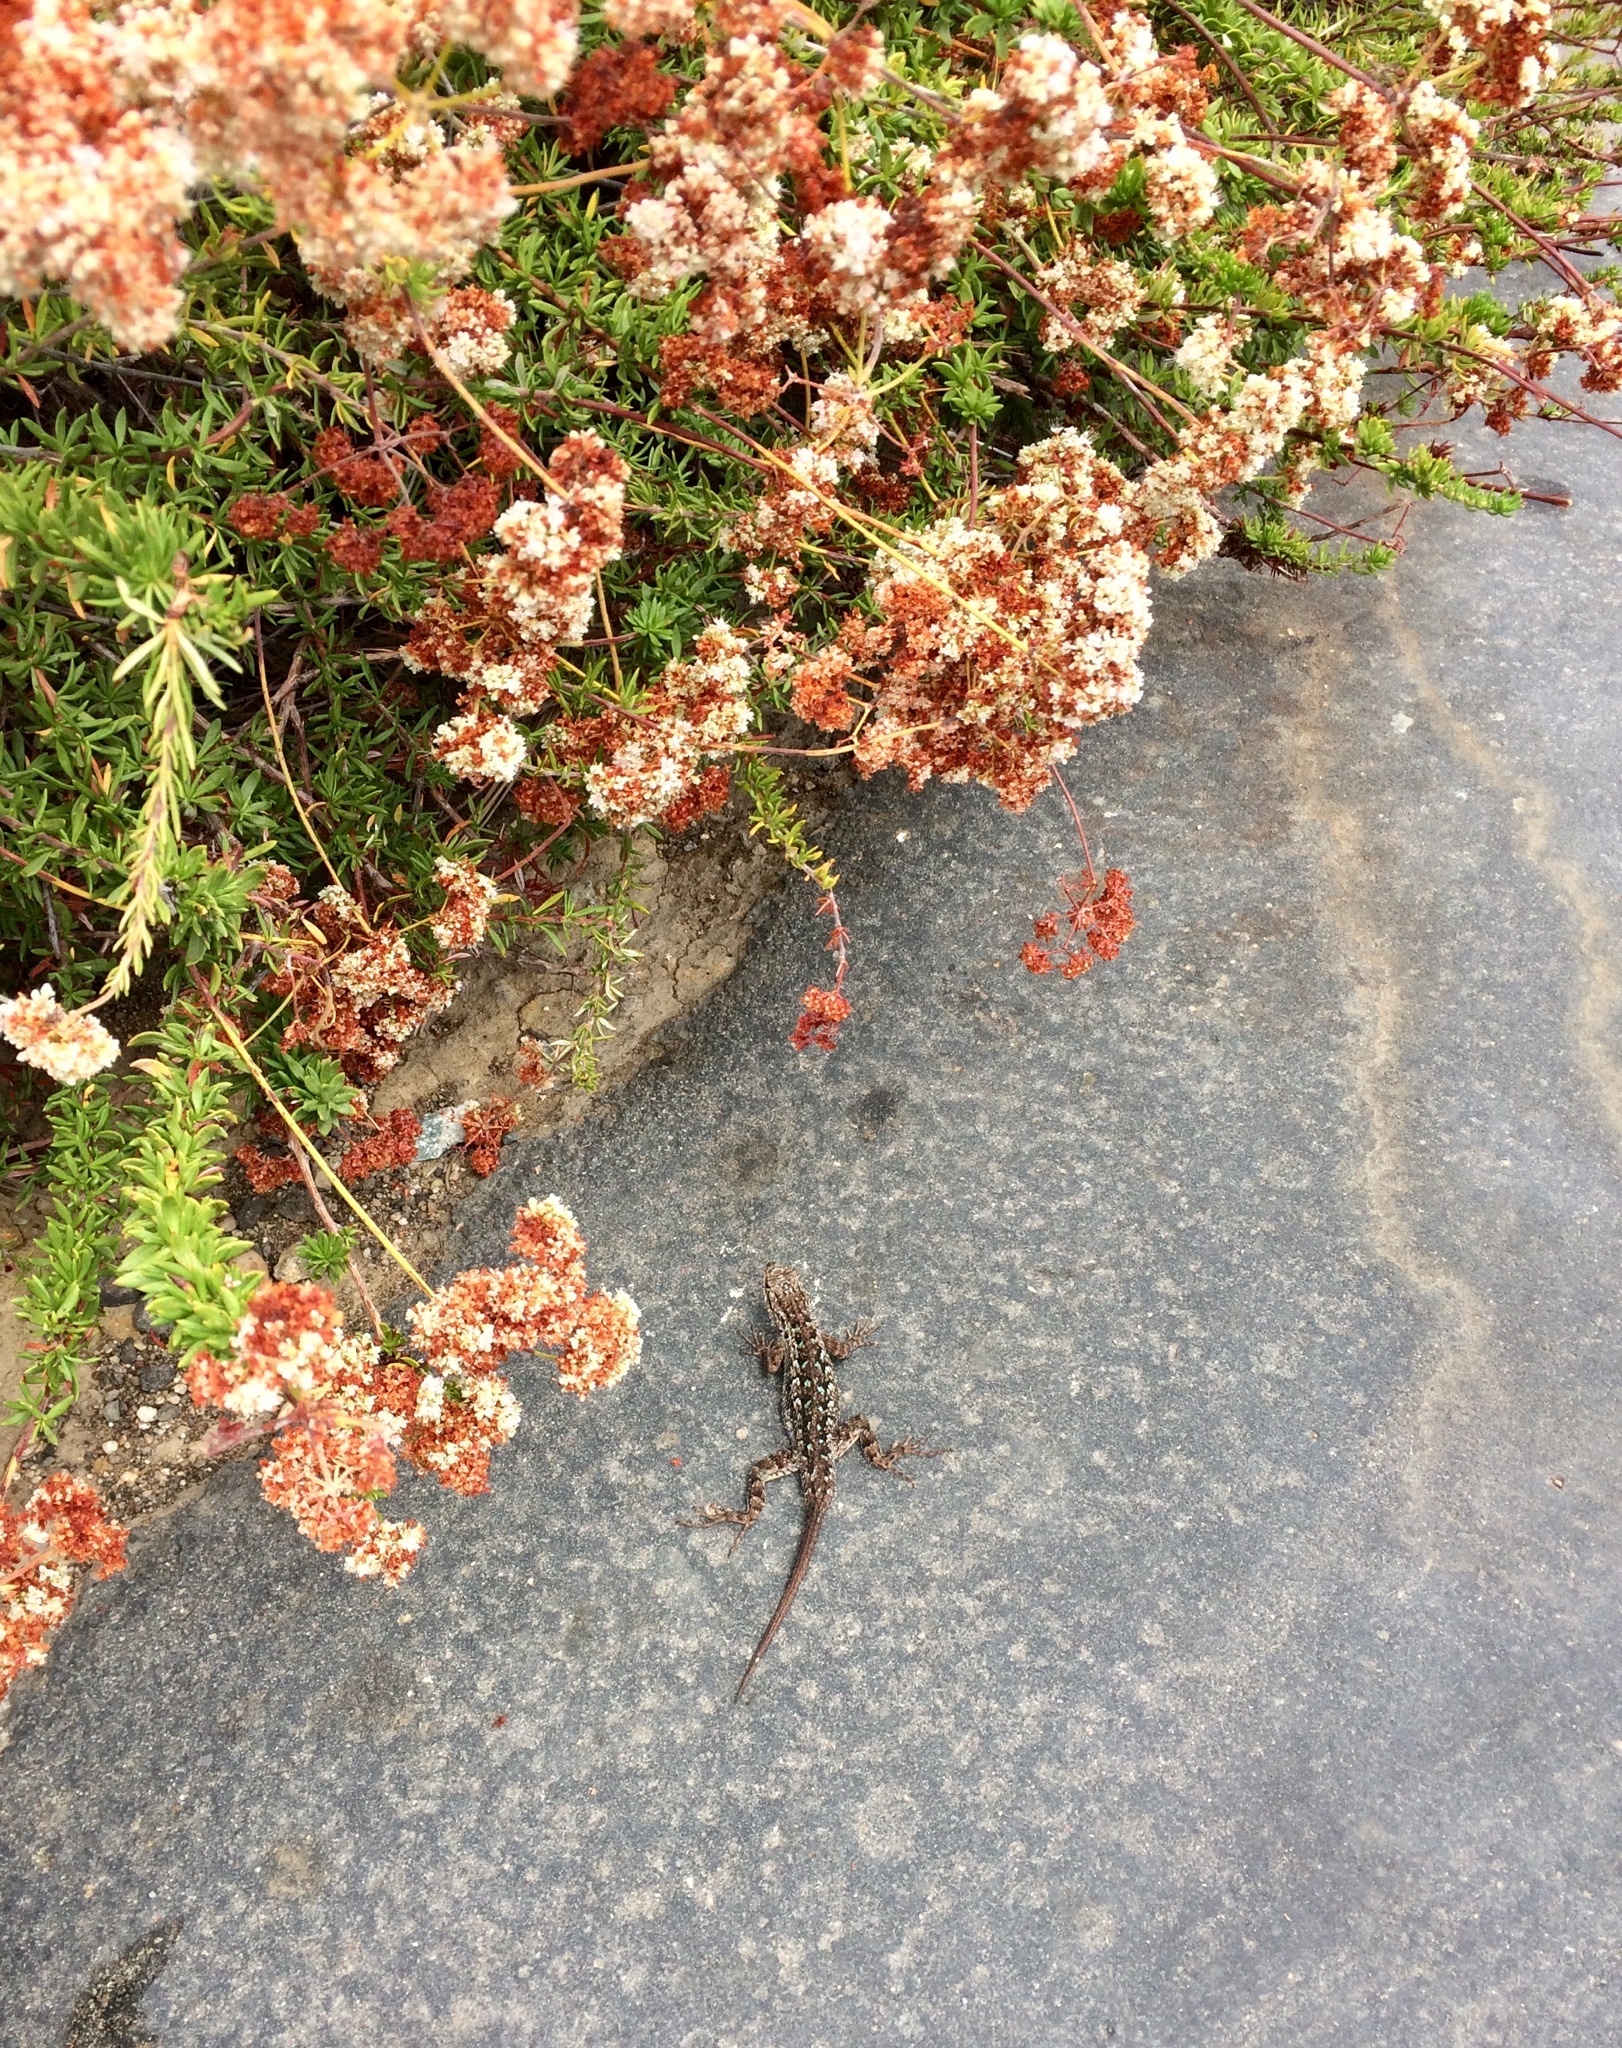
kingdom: Animalia
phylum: Chordata
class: Squamata
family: Phrynosomatidae
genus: Sceloporus
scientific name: Sceloporus occidentalis
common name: Western fence lizard
